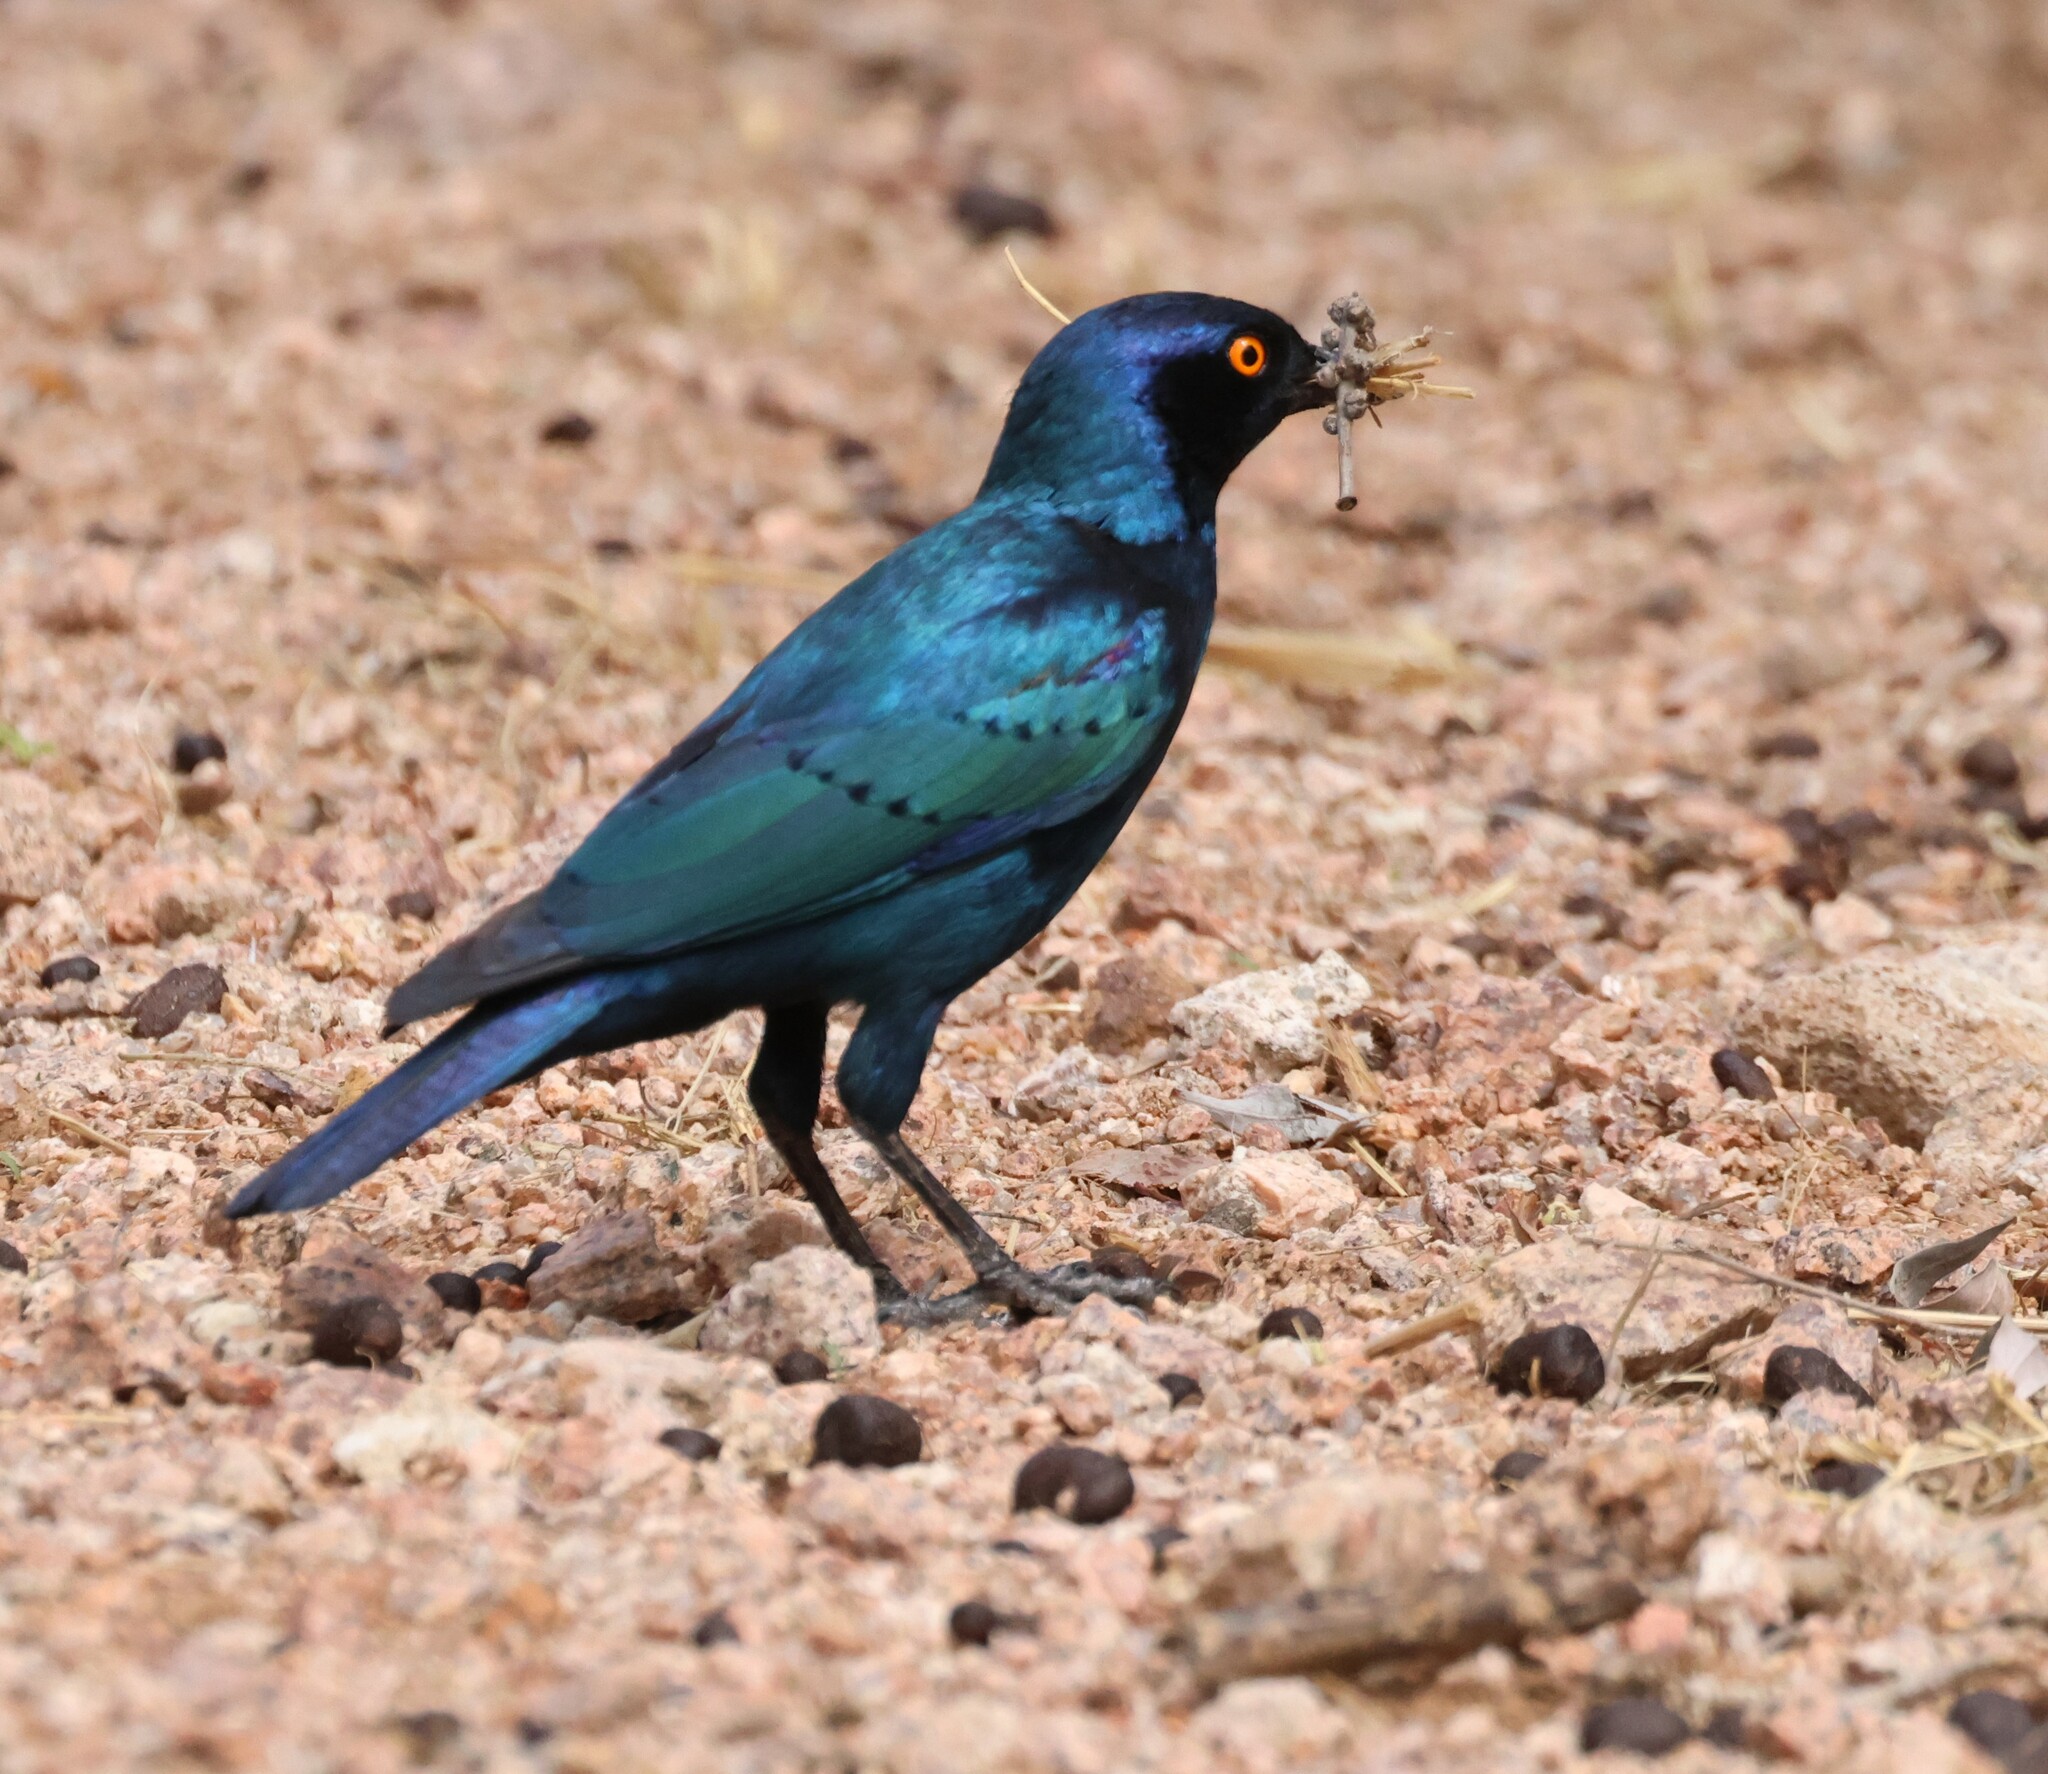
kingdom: Animalia
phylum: Chordata
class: Aves
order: Passeriformes
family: Sturnidae
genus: Lamprotornis
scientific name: Lamprotornis nitens
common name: Cape starling
